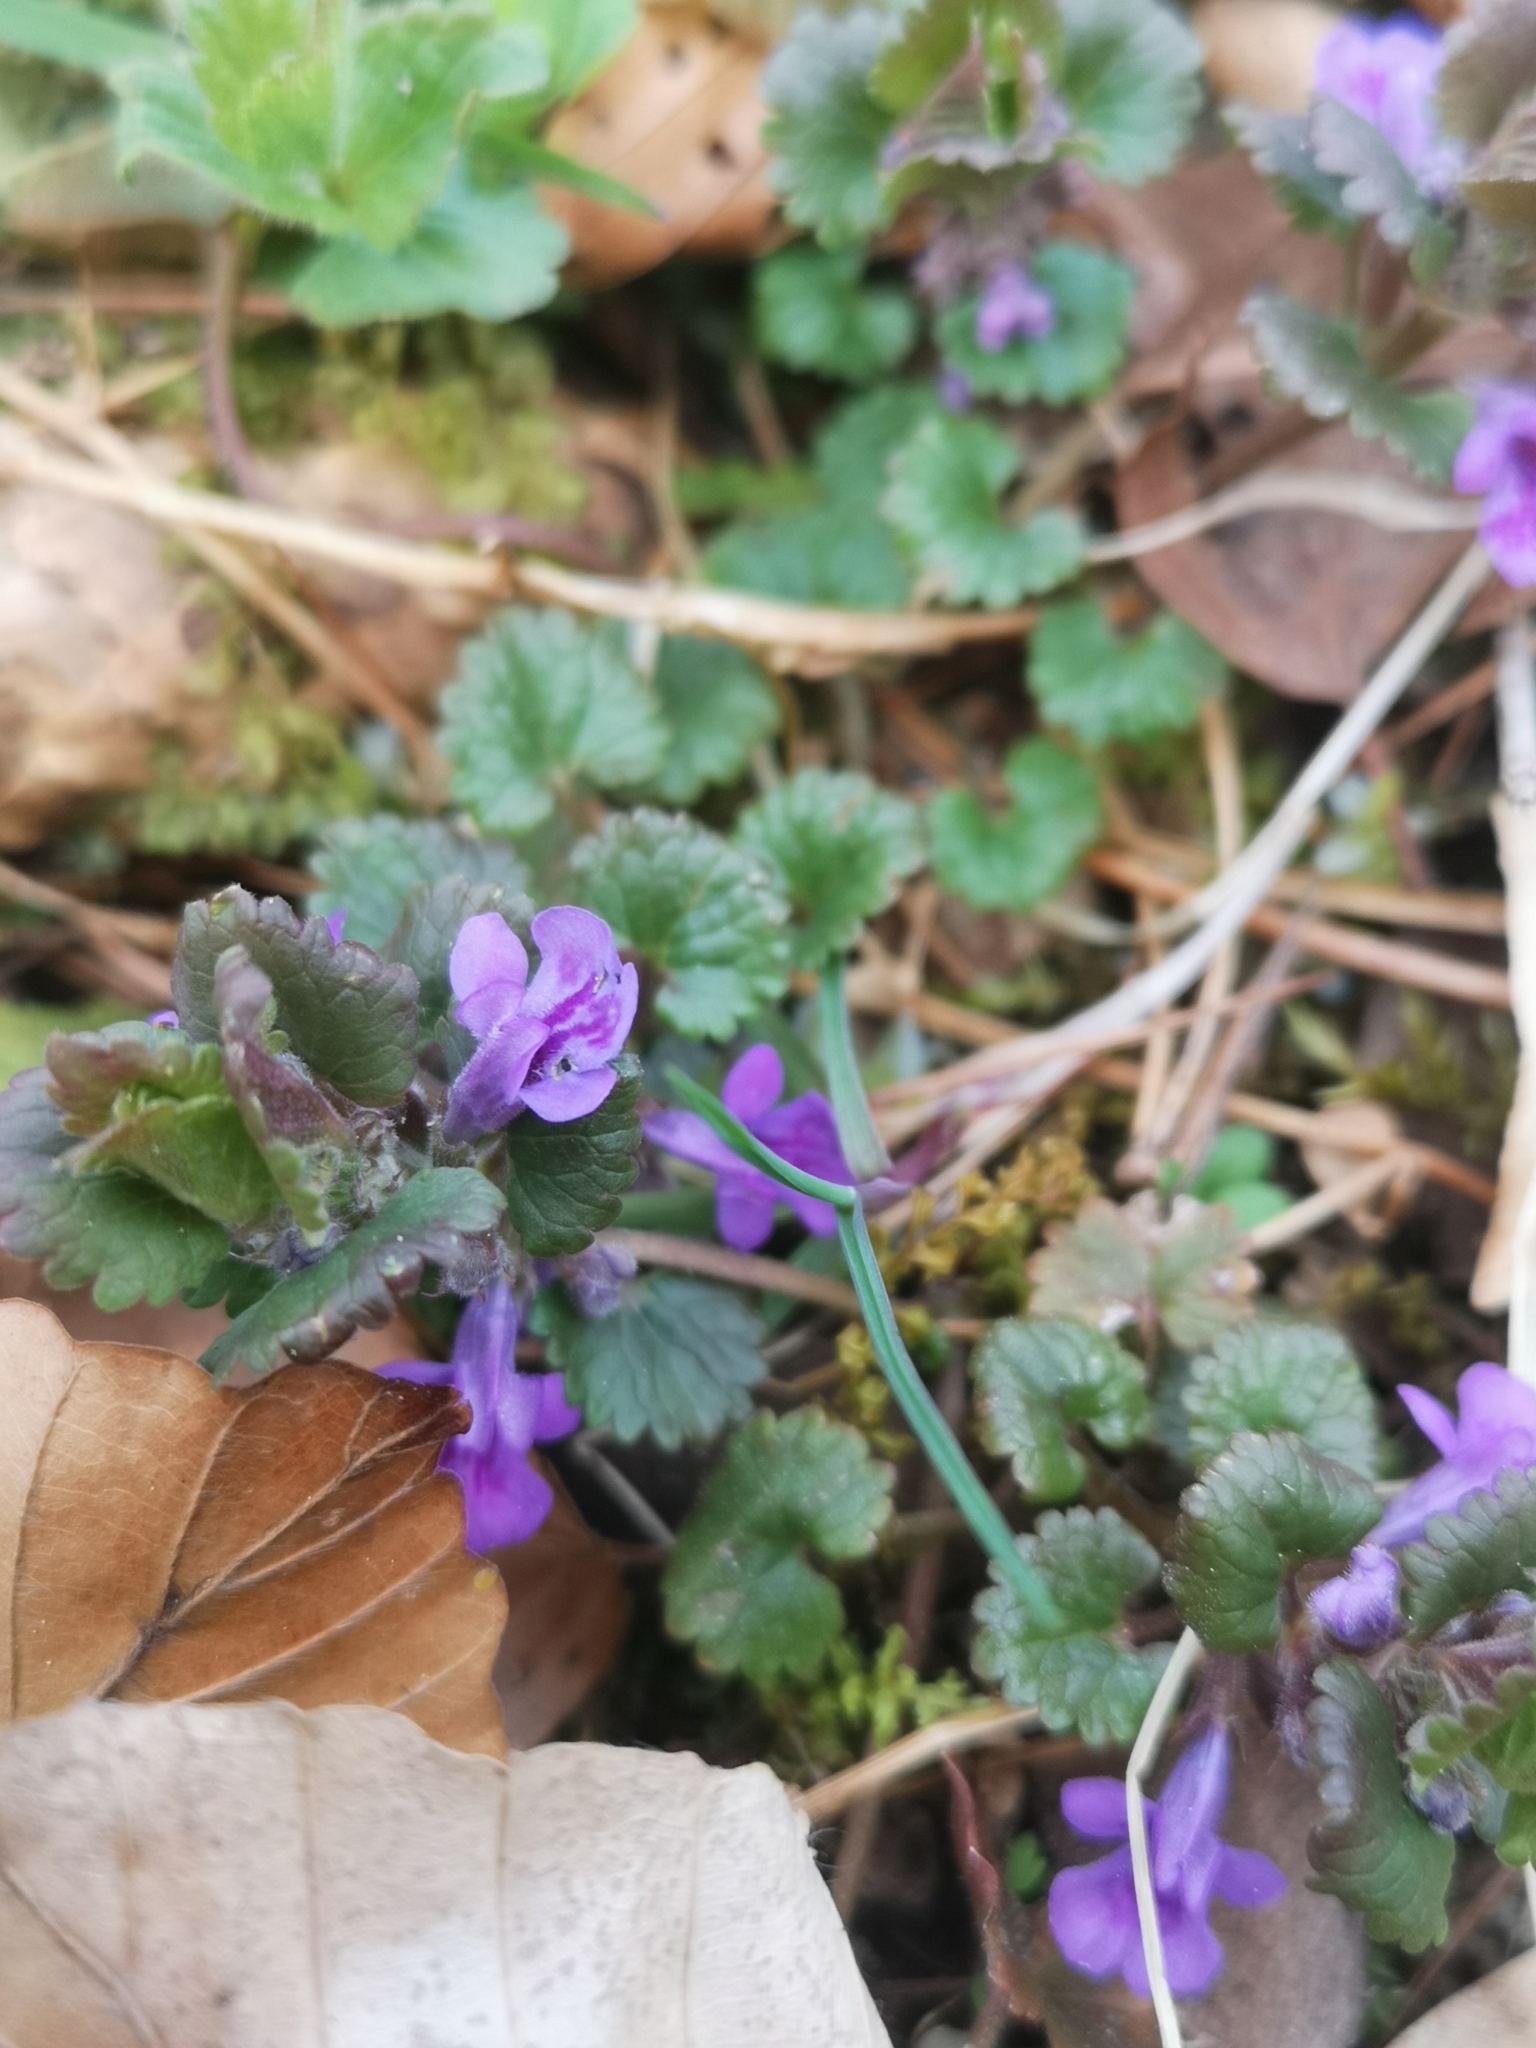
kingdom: Plantae
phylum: Tracheophyta
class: Magnoliopsida
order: Lamiales
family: Lamiaceae
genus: Glechoma
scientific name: Glechoma hederacea
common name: Ground ivy
